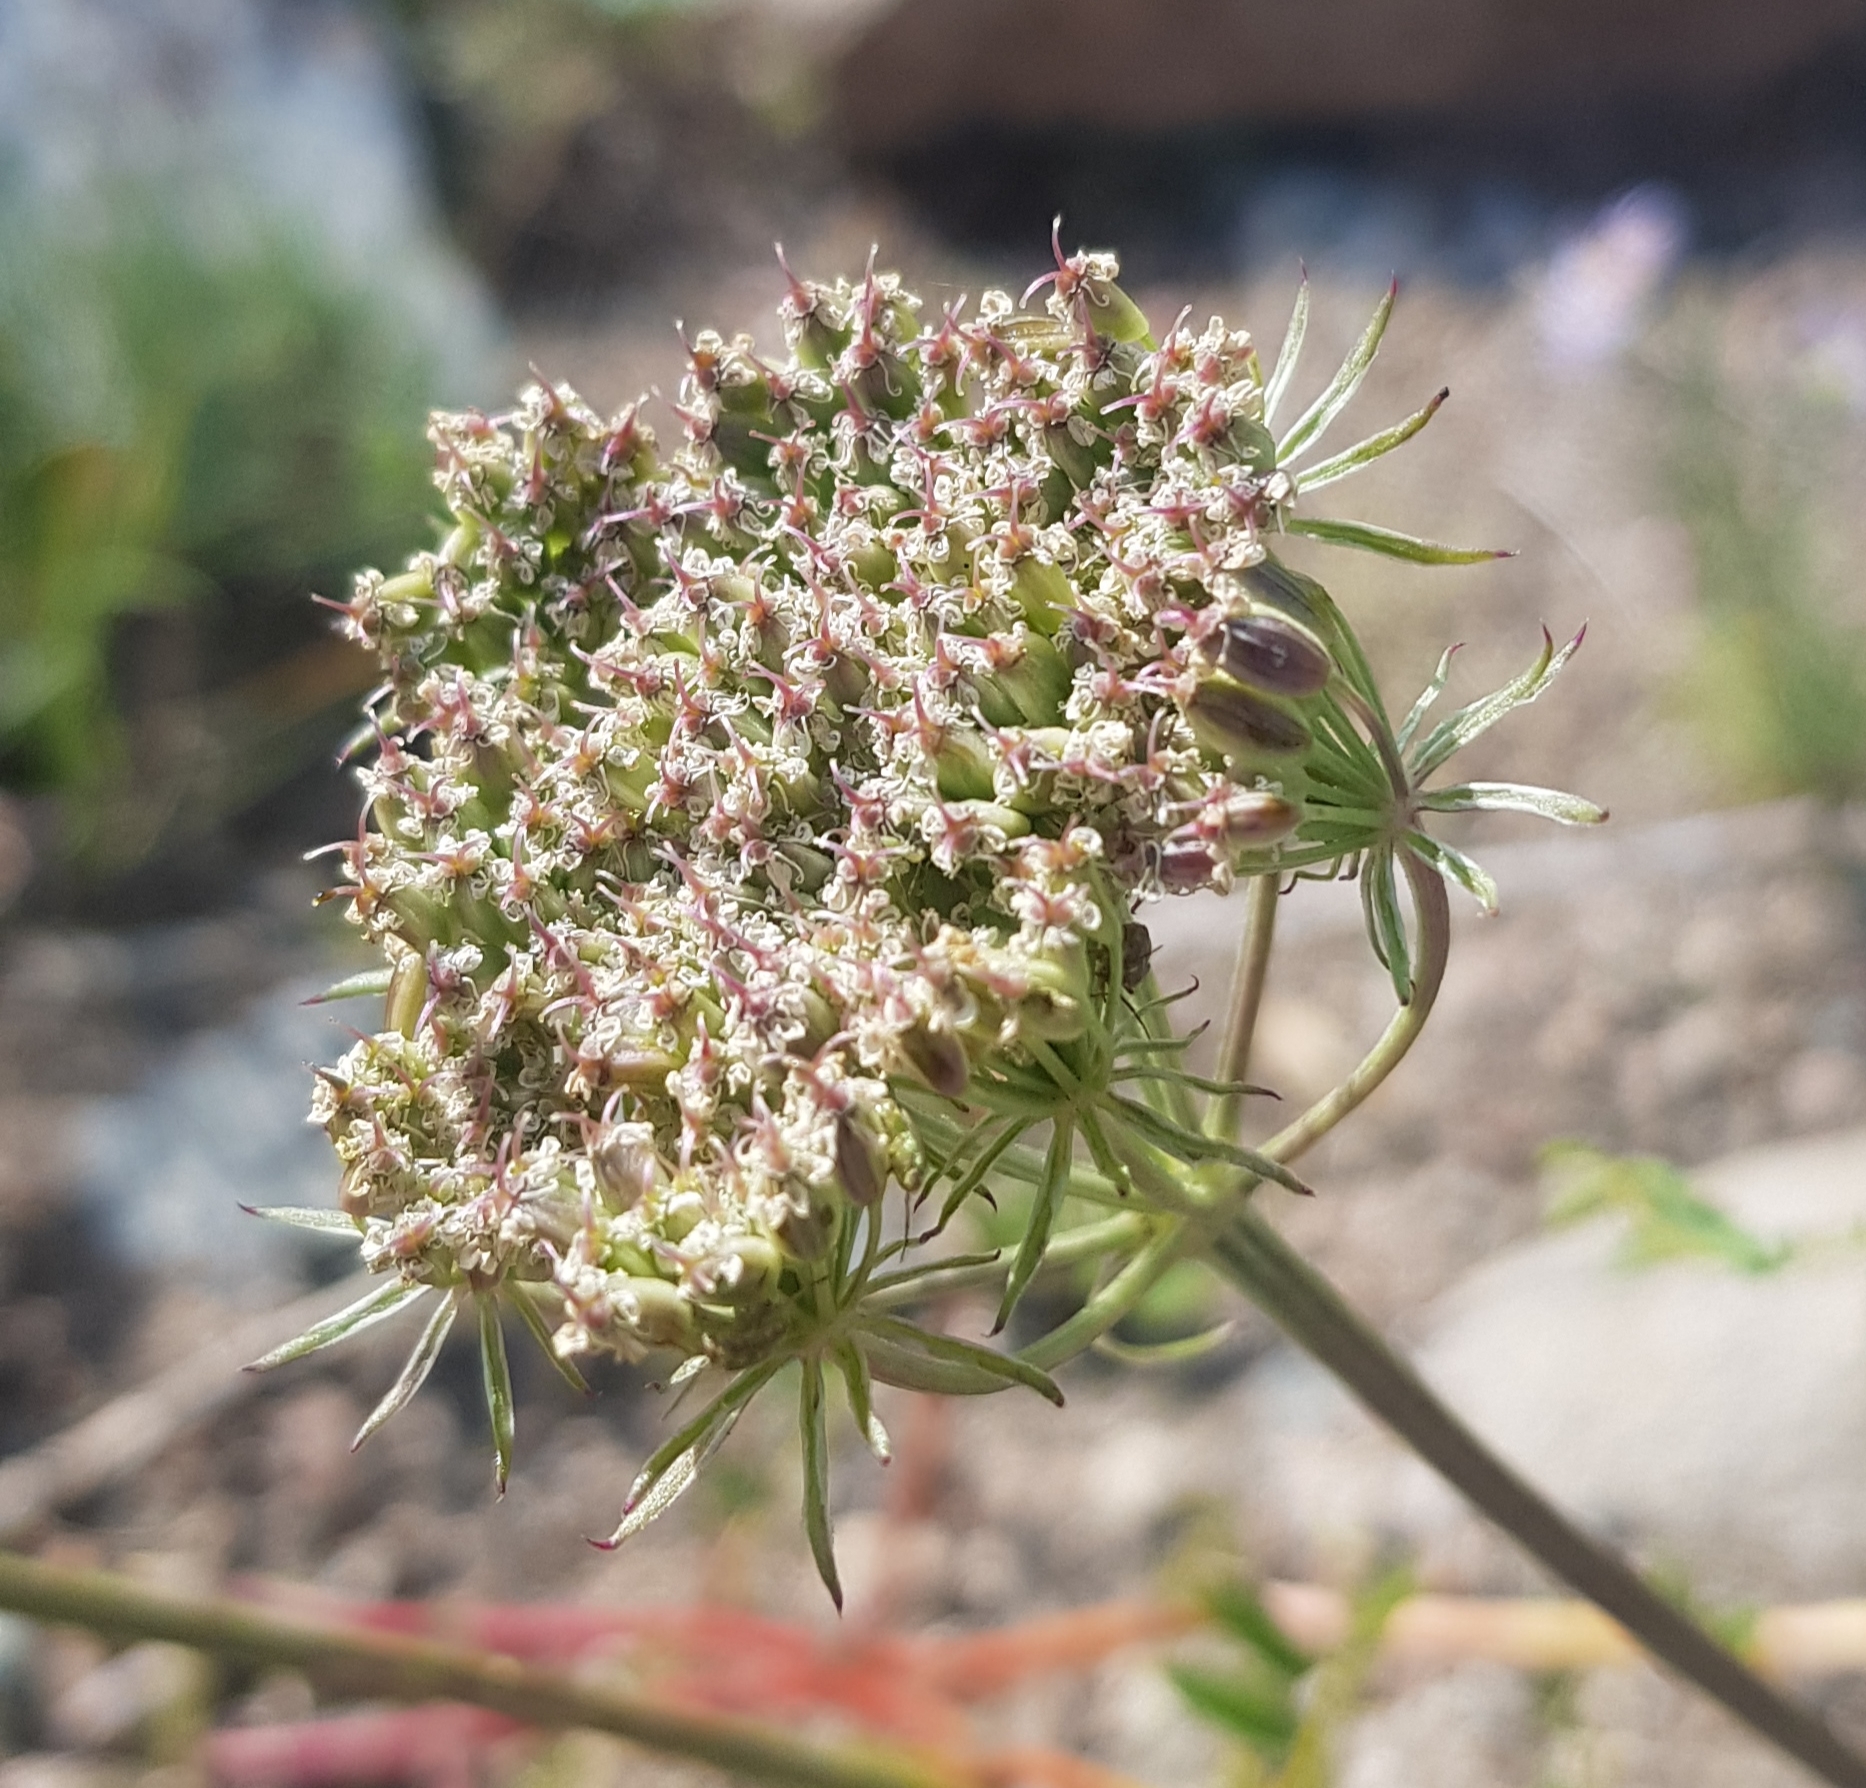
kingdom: Plantae
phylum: Tracheophyta
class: Magnoliopsida
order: Apiales
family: Apiaceae
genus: Kitagawia
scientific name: Kitagawia baicalensis
